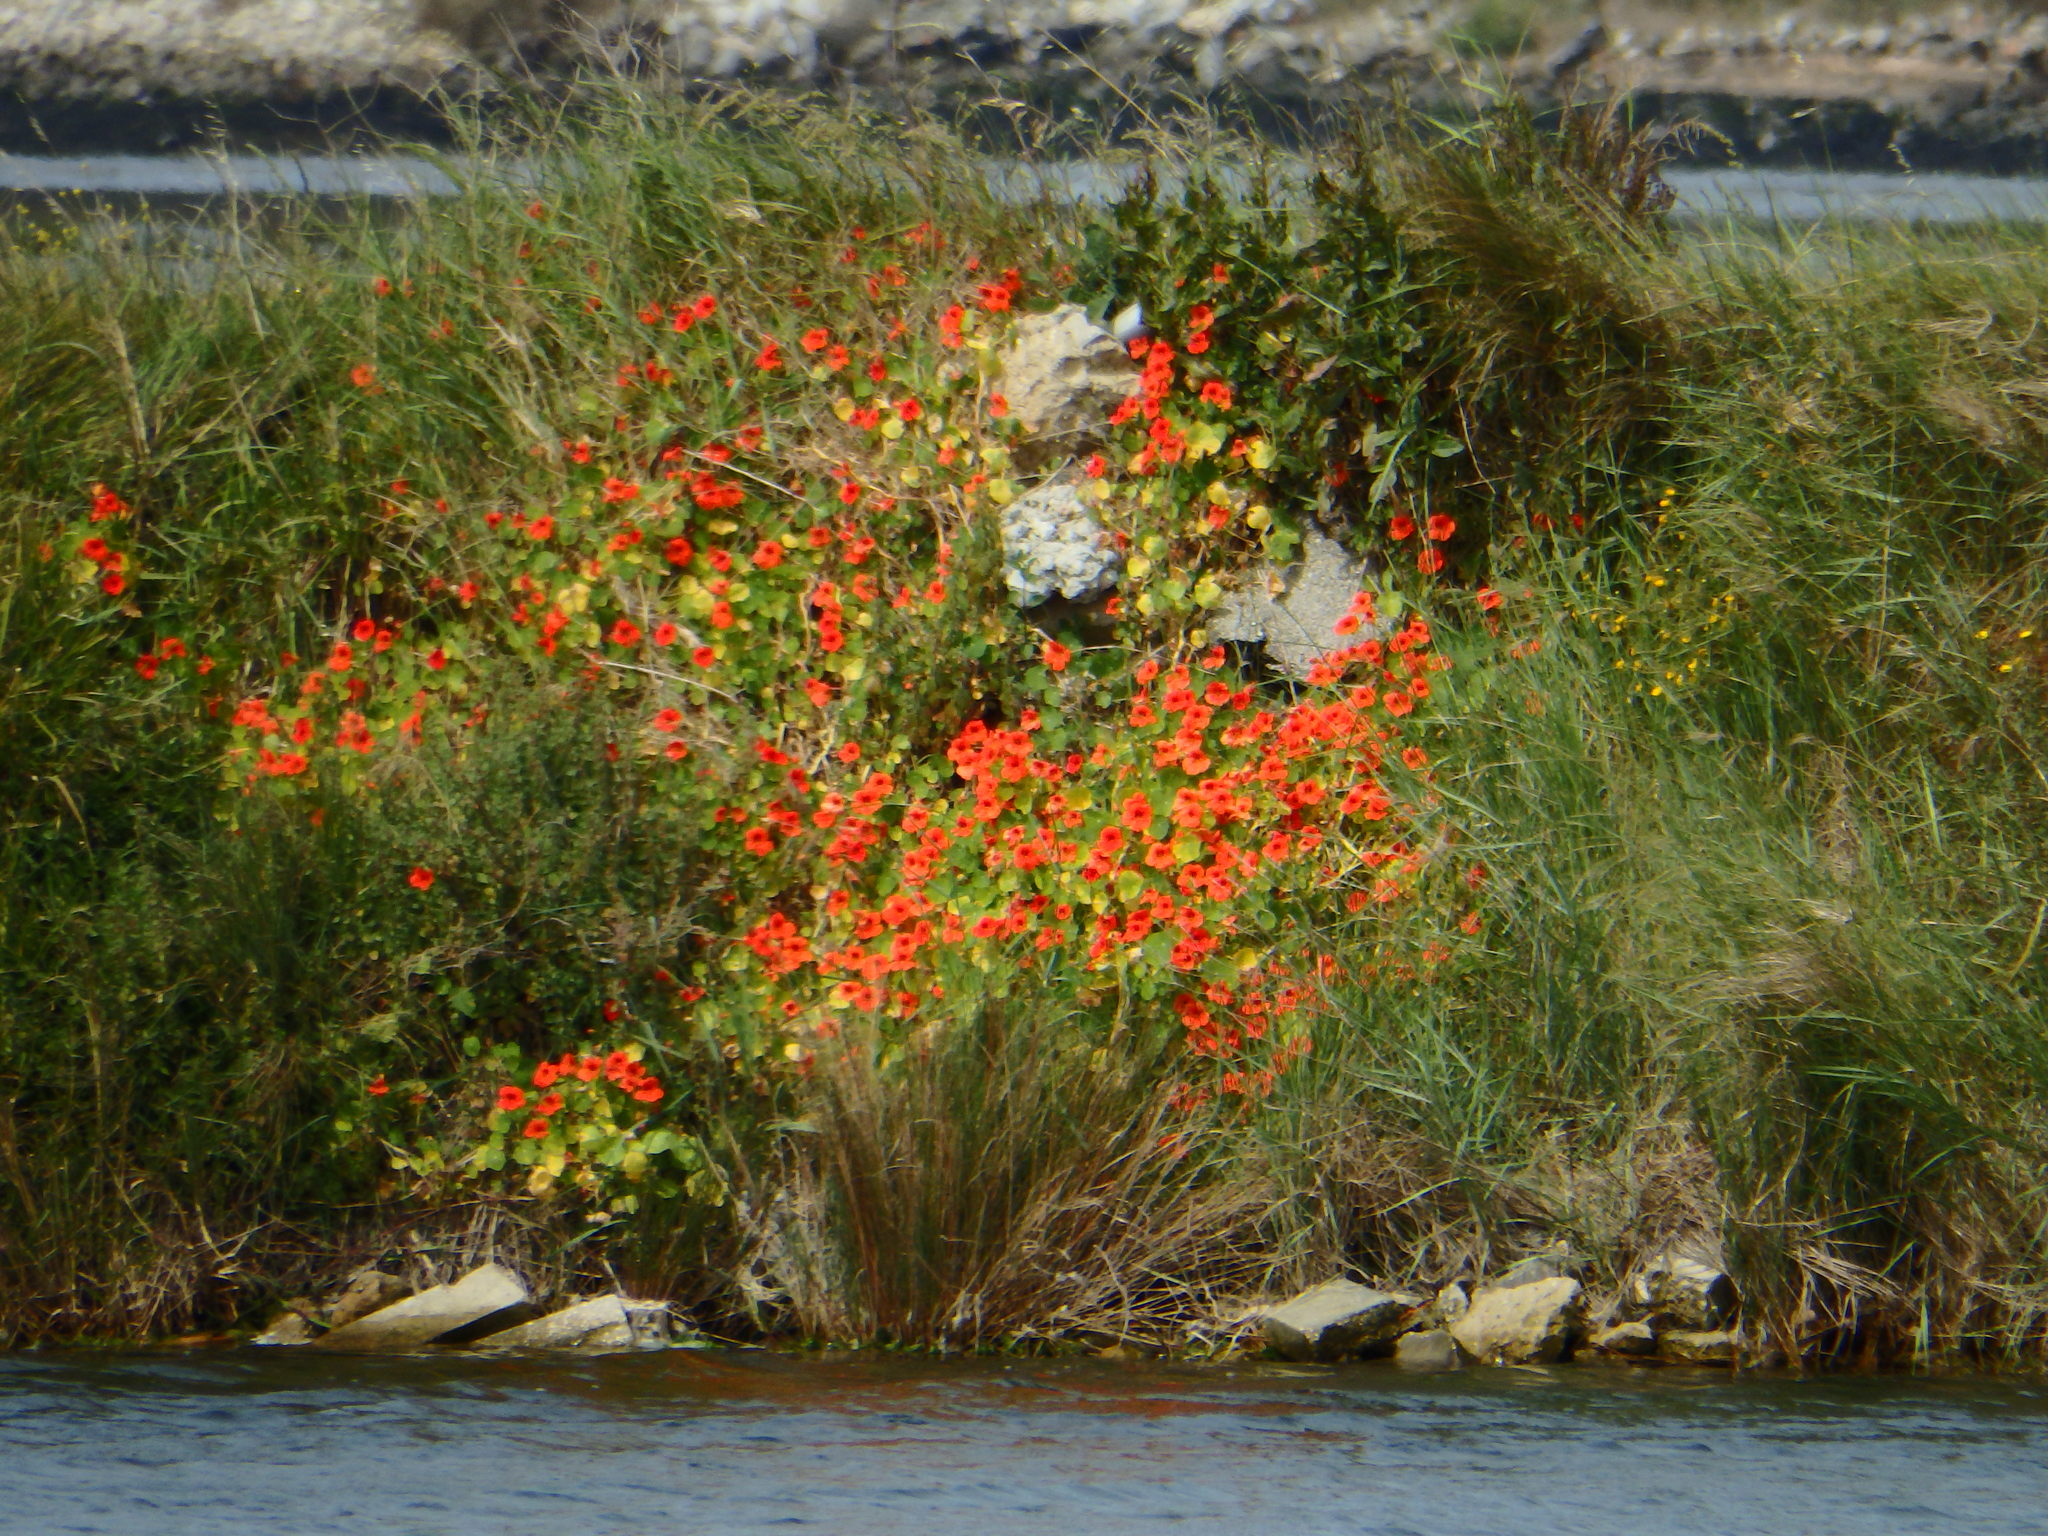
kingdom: Plantae
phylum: Tracheophyta
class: Magnoliopsida
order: Brassicales
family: Tropaeolaceae
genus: Tropaeolum
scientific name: Tropaeolum majus
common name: Nasturtium
